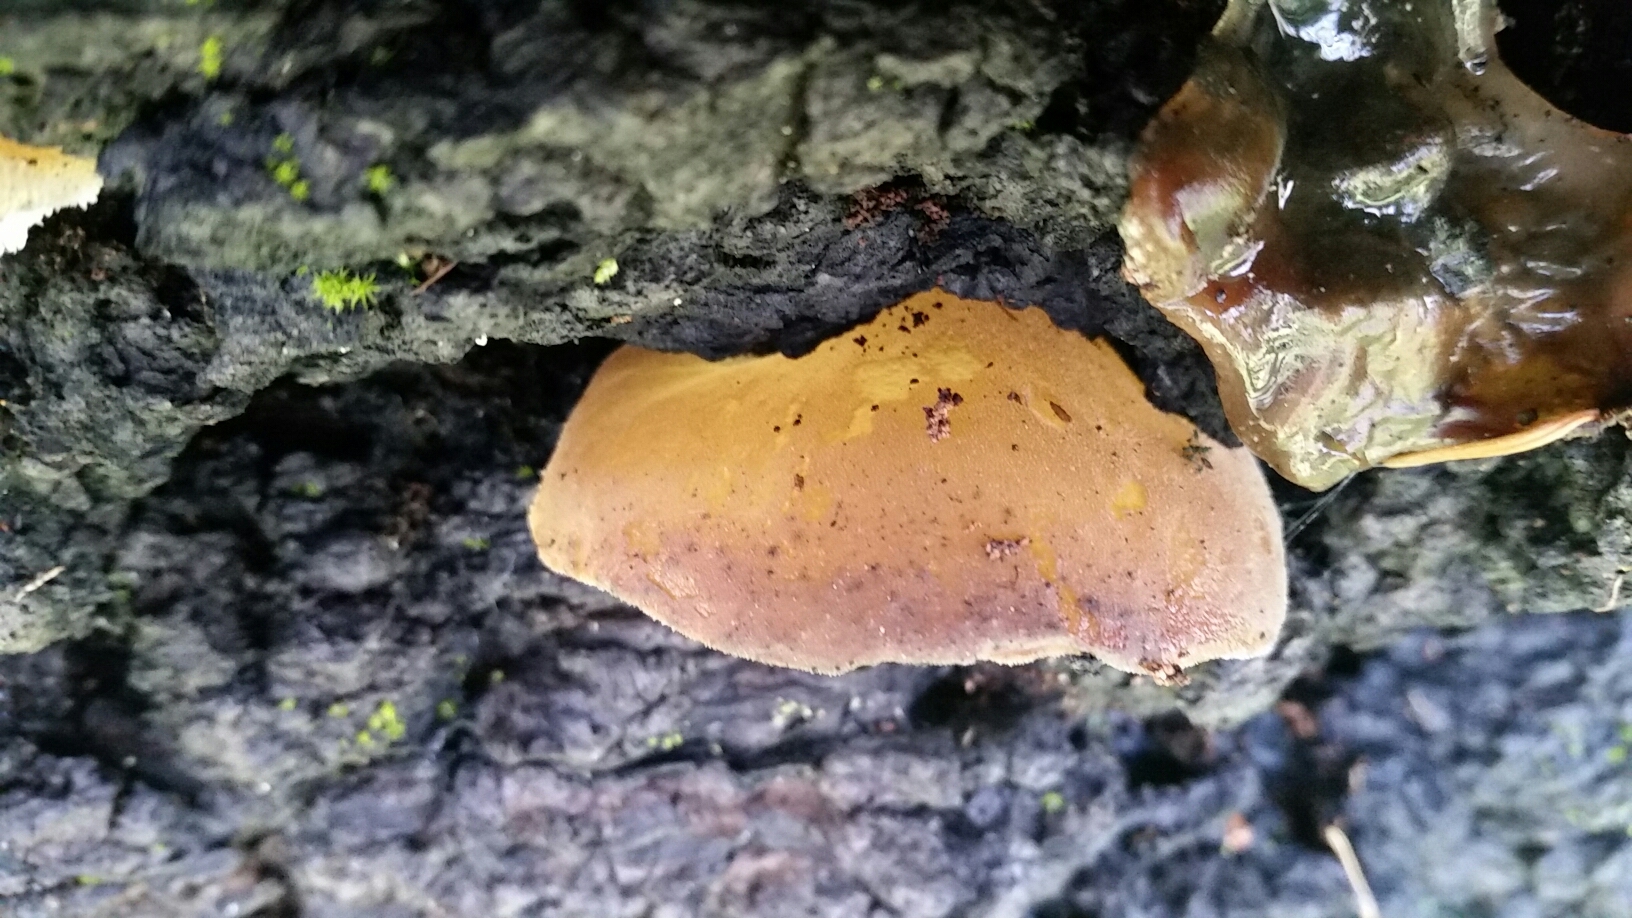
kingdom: Fungi
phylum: Basidiomycota
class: Agaricomycetes
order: Auriculariales
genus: Pseudohydnum
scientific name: Pseudohydnum gelatinosum
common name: Jelly tongue
